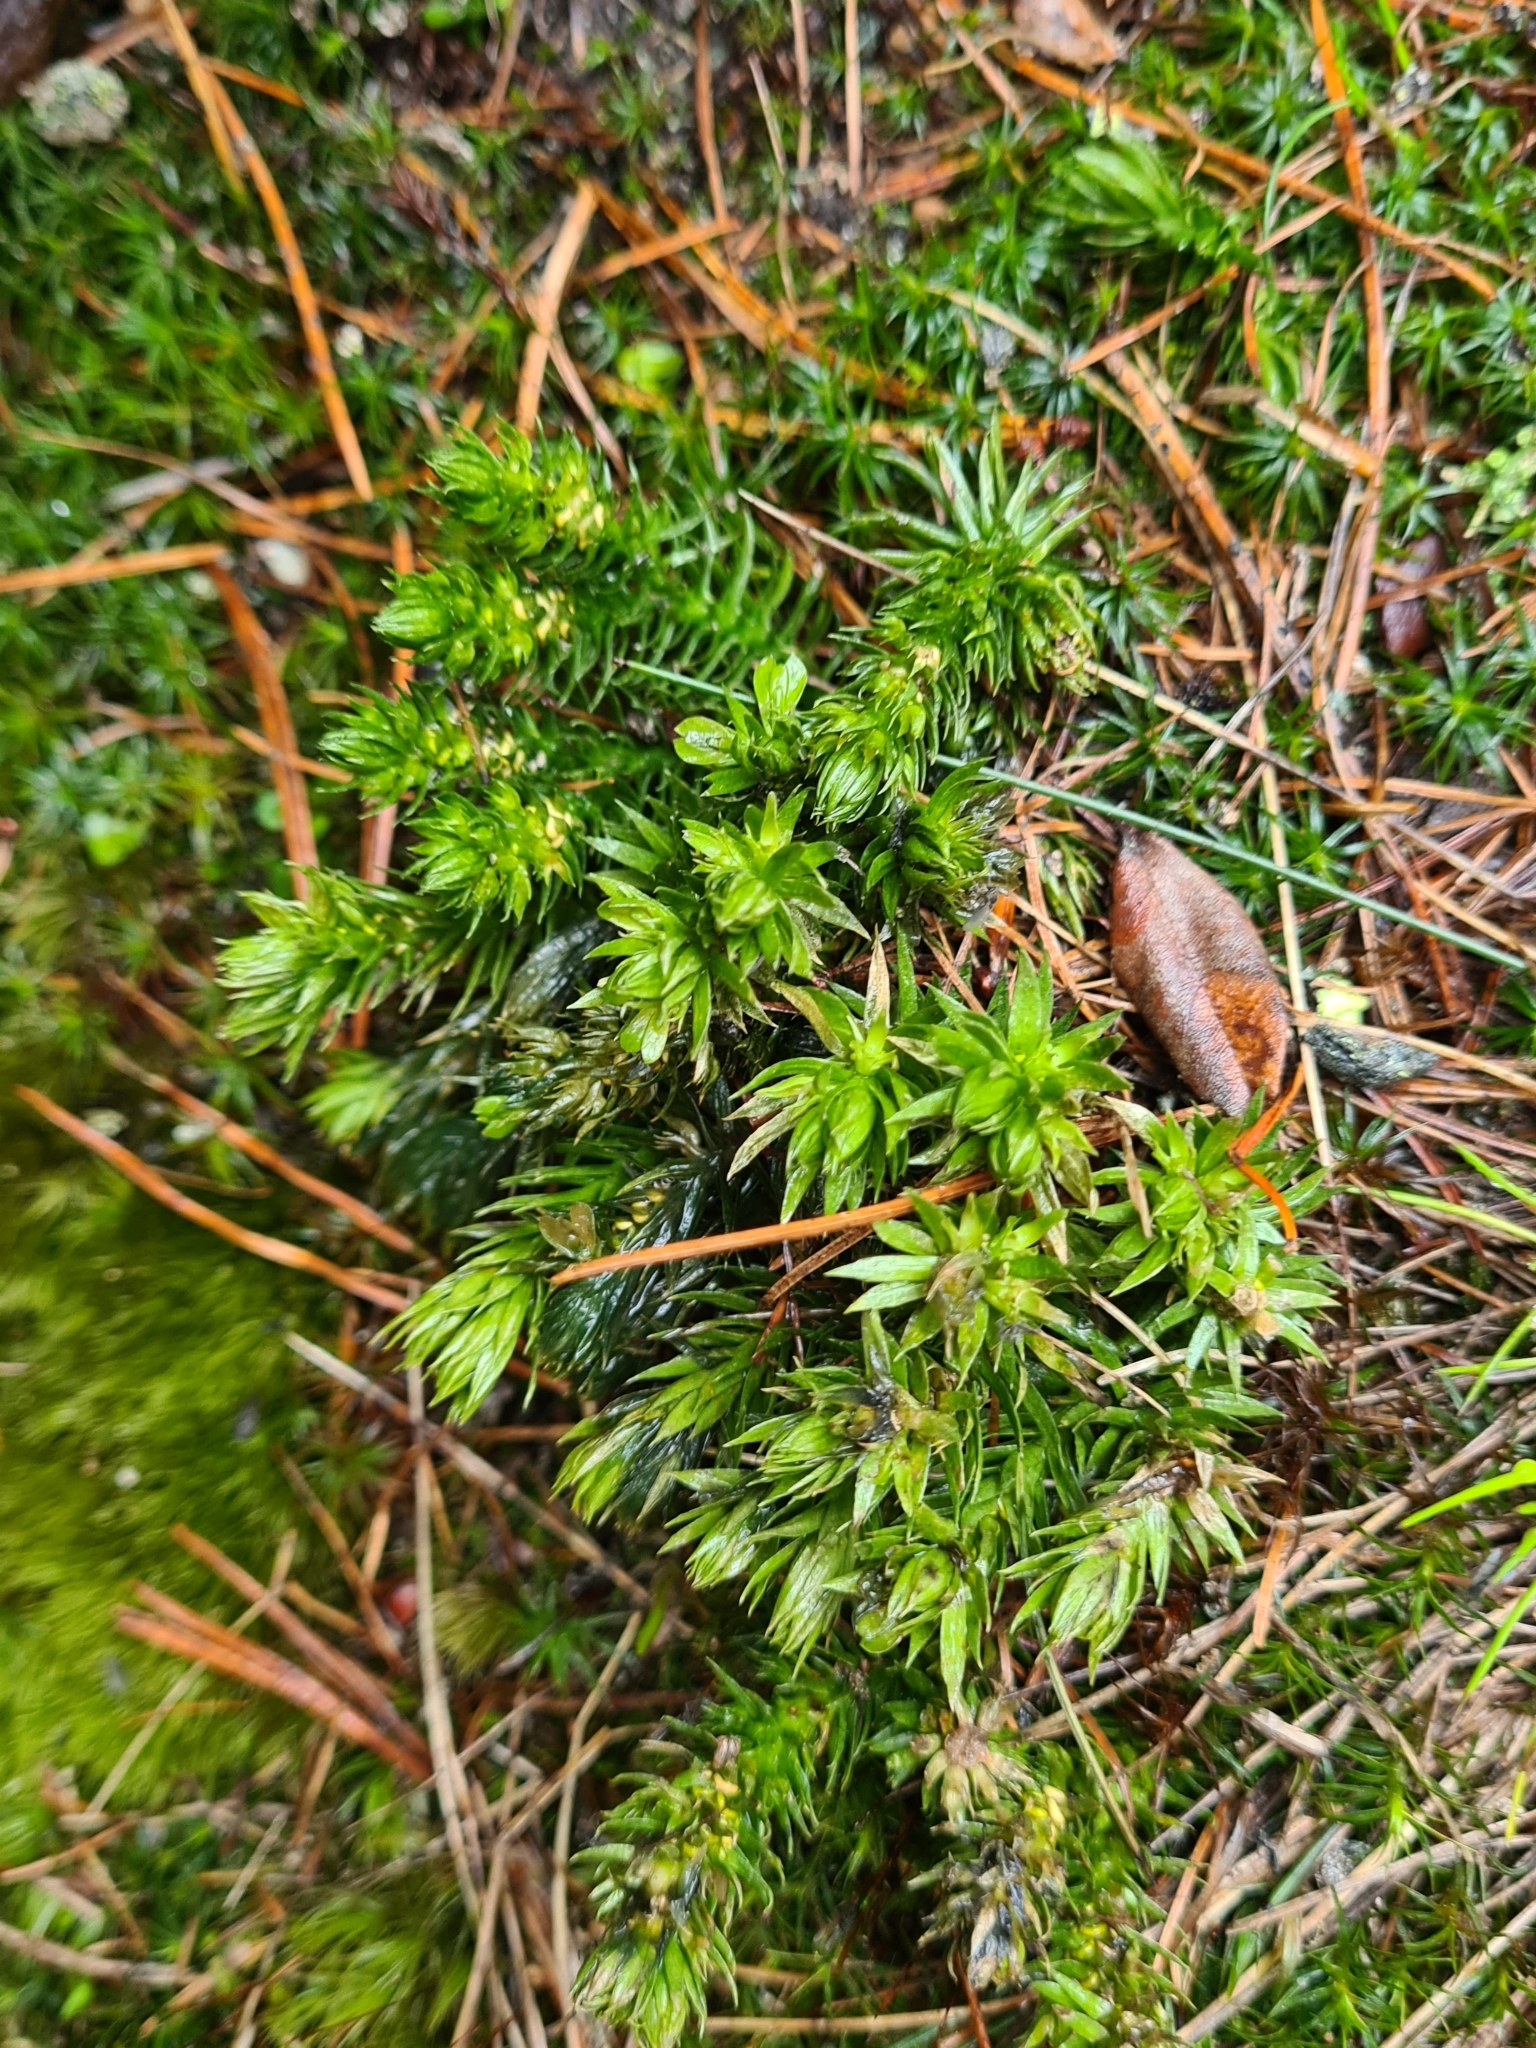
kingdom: Plantae
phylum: Tracheophyta
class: Lycopodiopsida
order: Lycopodiales
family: Lycopodiaceae
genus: Huperzia
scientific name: Huperzia selago
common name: Northern firmoss
